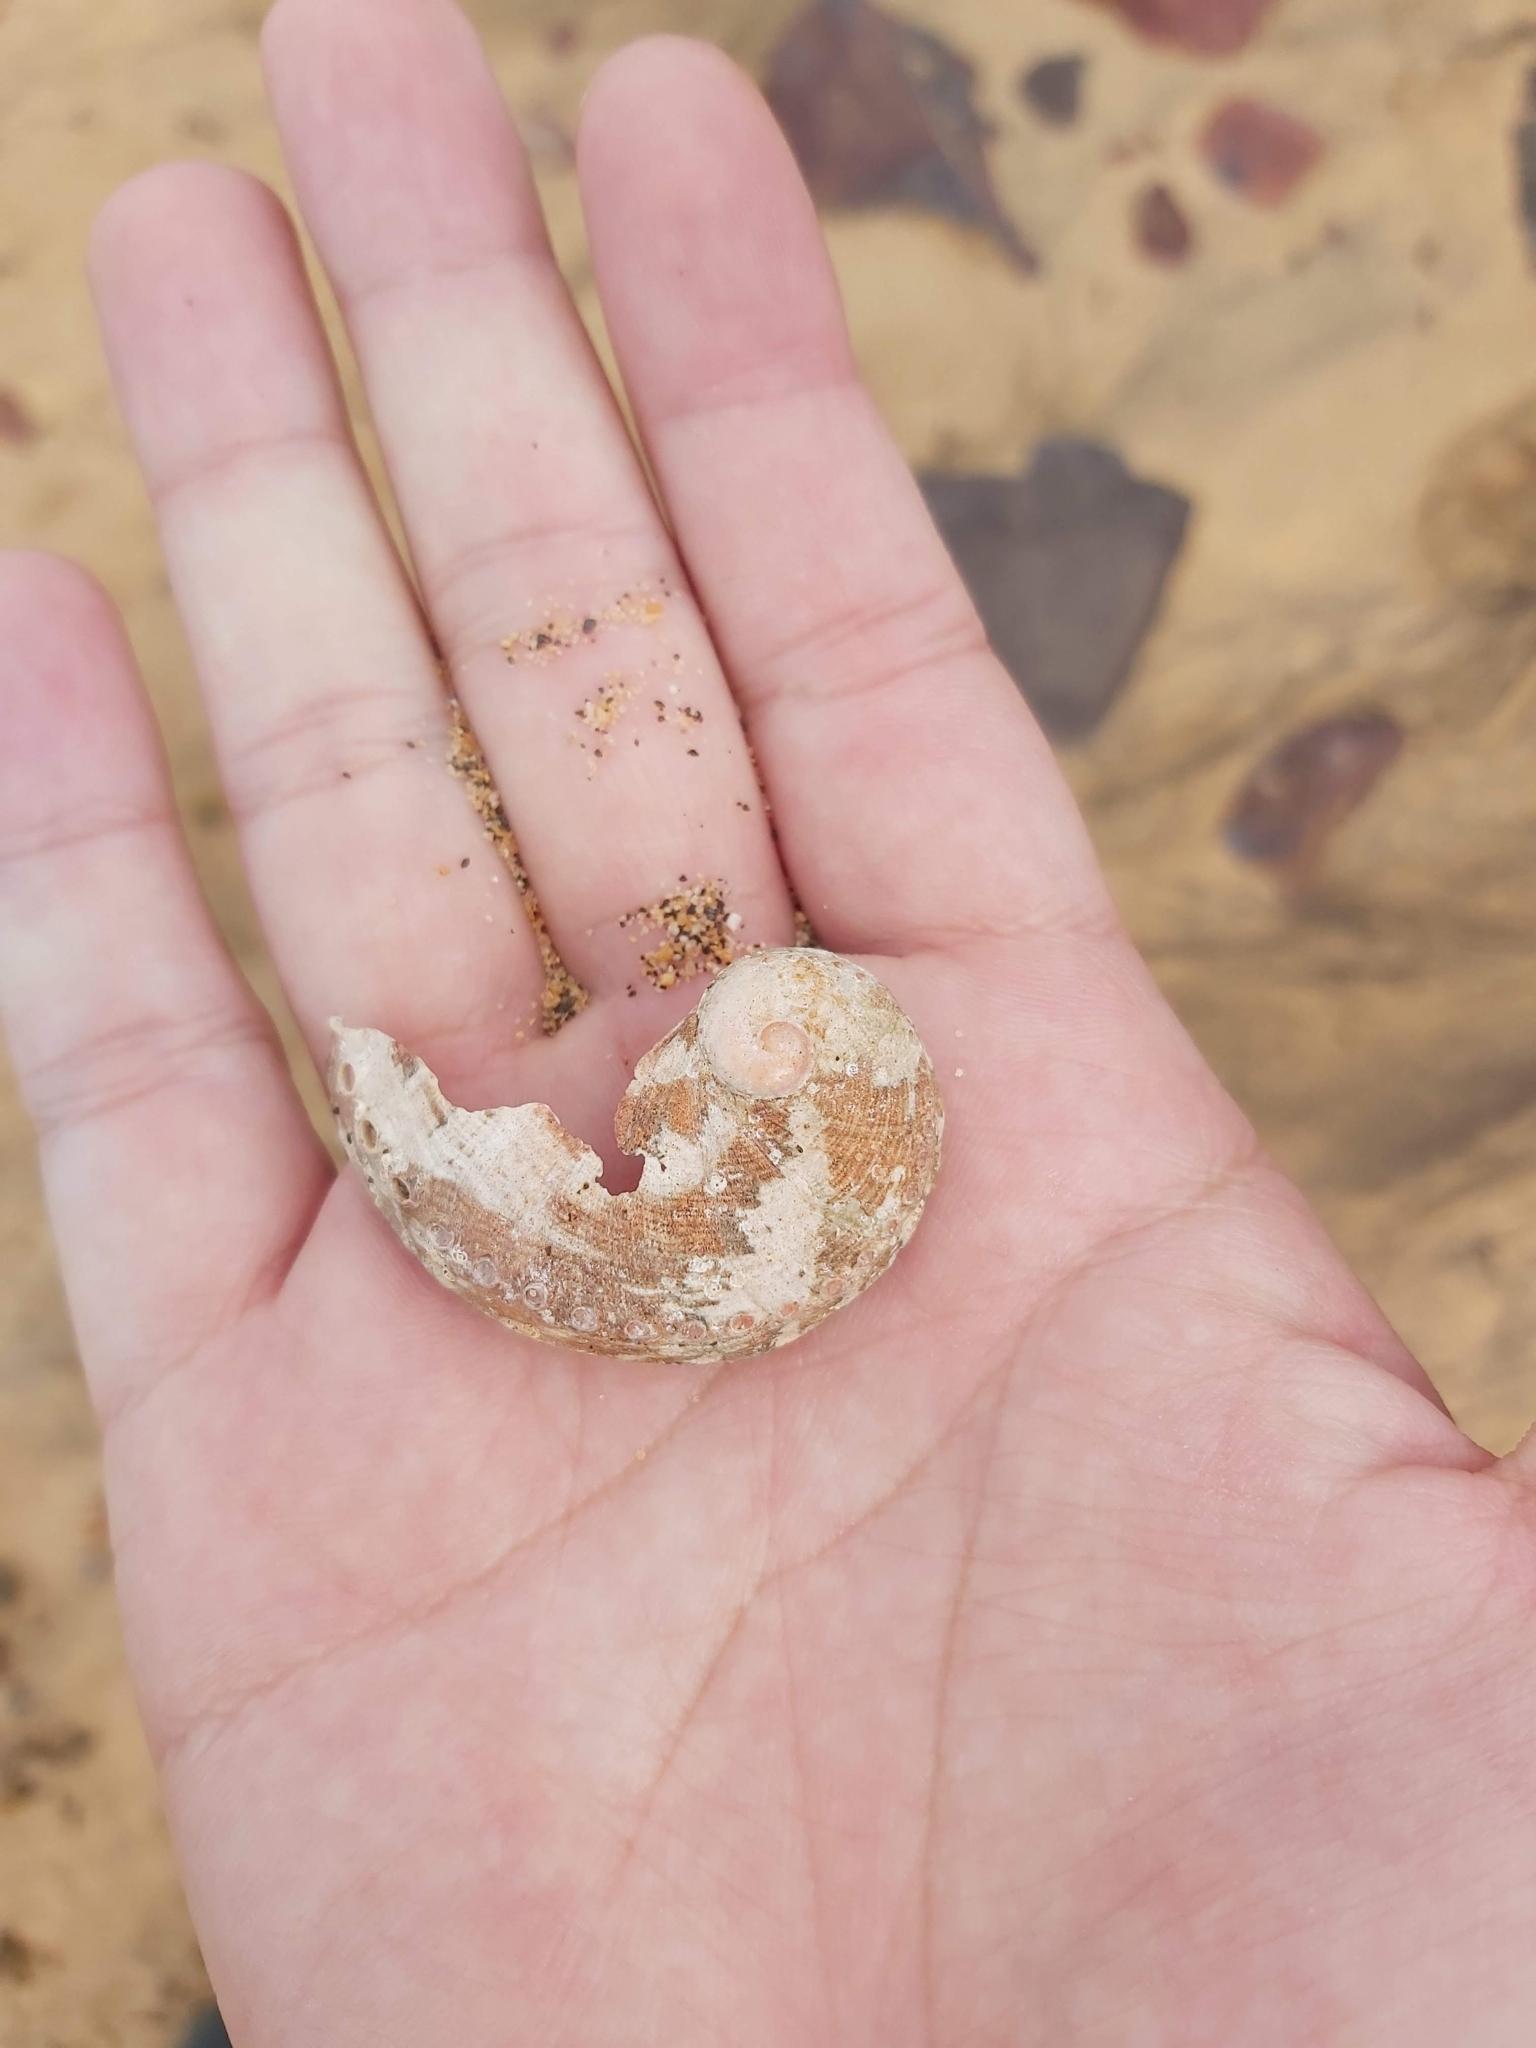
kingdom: Animalia
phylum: Mollusca
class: Gastropoda
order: Lepetellida
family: Haliotidae
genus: Haliotis
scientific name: Haliotis coccoradiata
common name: Reddish-rayed abalone
